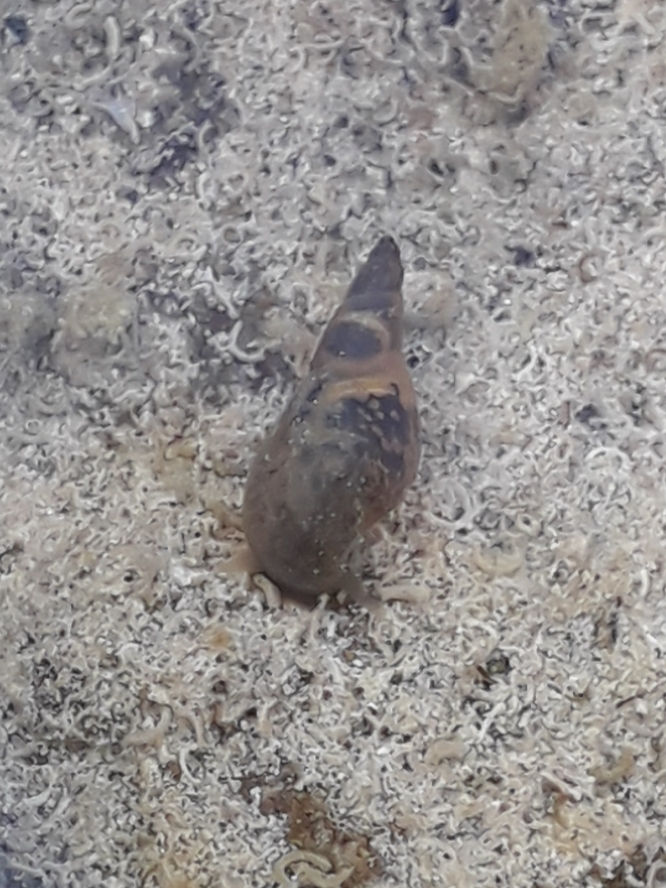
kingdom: Animalia
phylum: Mollusca
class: Gastropoda
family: Lymnaeidae
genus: Lymnaea
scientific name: Lymnaea stagnalis
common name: Great pond snail
